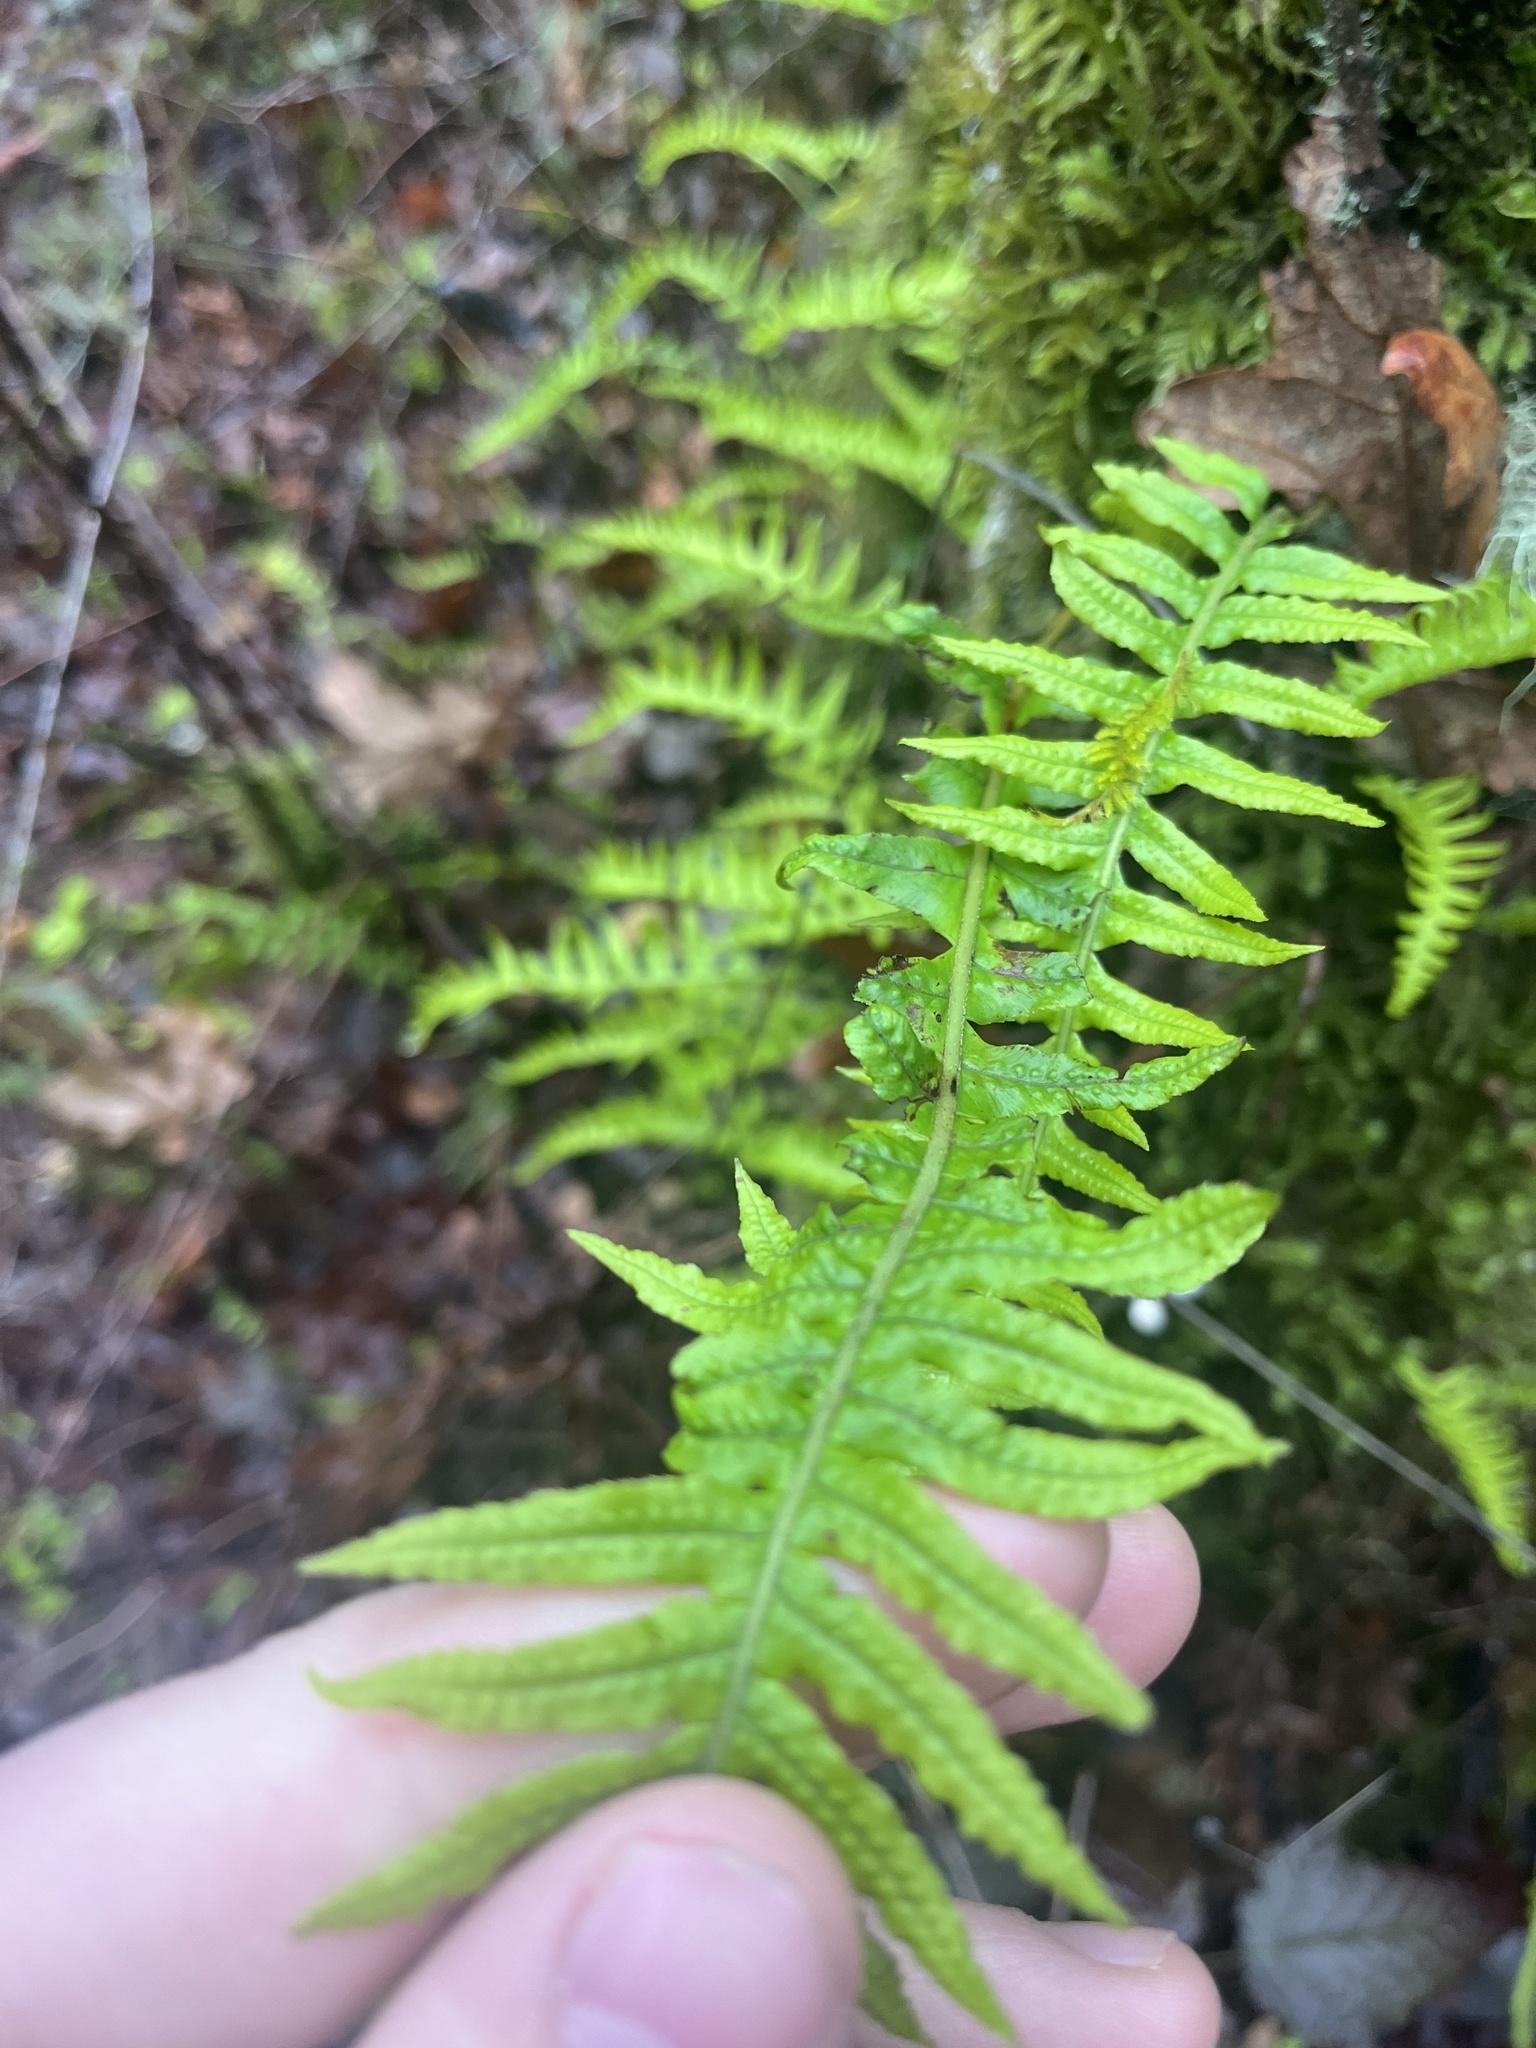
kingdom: Plantae
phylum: Tracheophyta
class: Polypodiopsida
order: Polypodiales
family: Polypodiaceae
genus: Polypodium
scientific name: Polypodium glycyrrhiza
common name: Licorice fern
